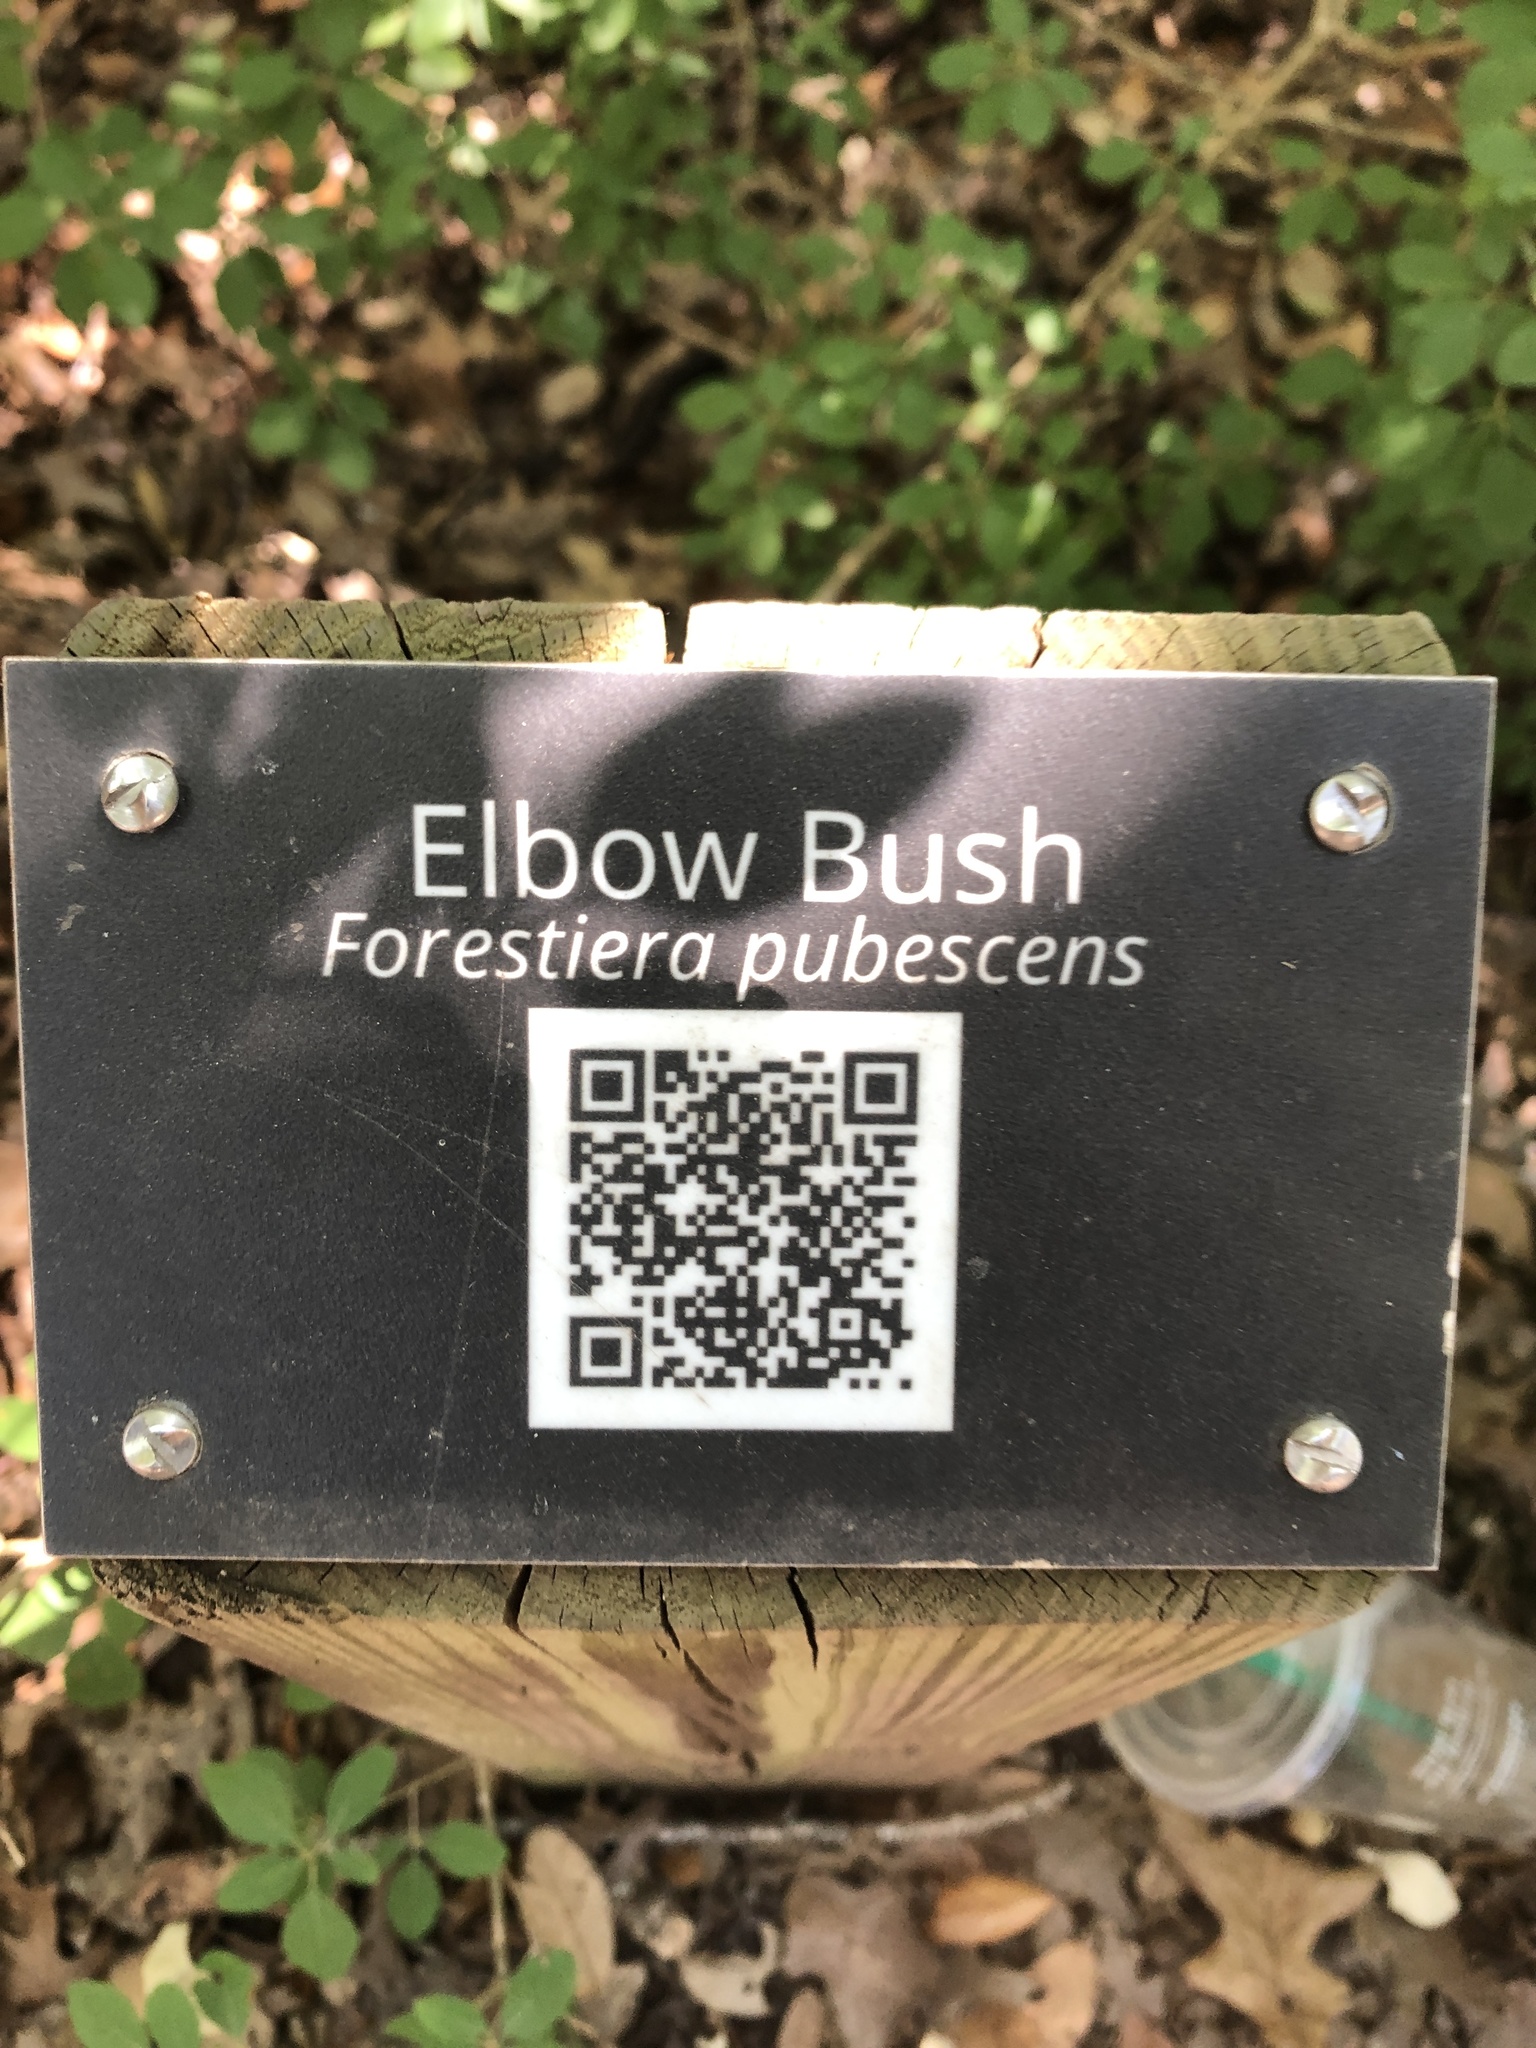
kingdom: Plantae
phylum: Tracheophyta
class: Magnoliopsida
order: Lamiales
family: Oleaceae
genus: Forestiera
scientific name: Forestiera pubescens
